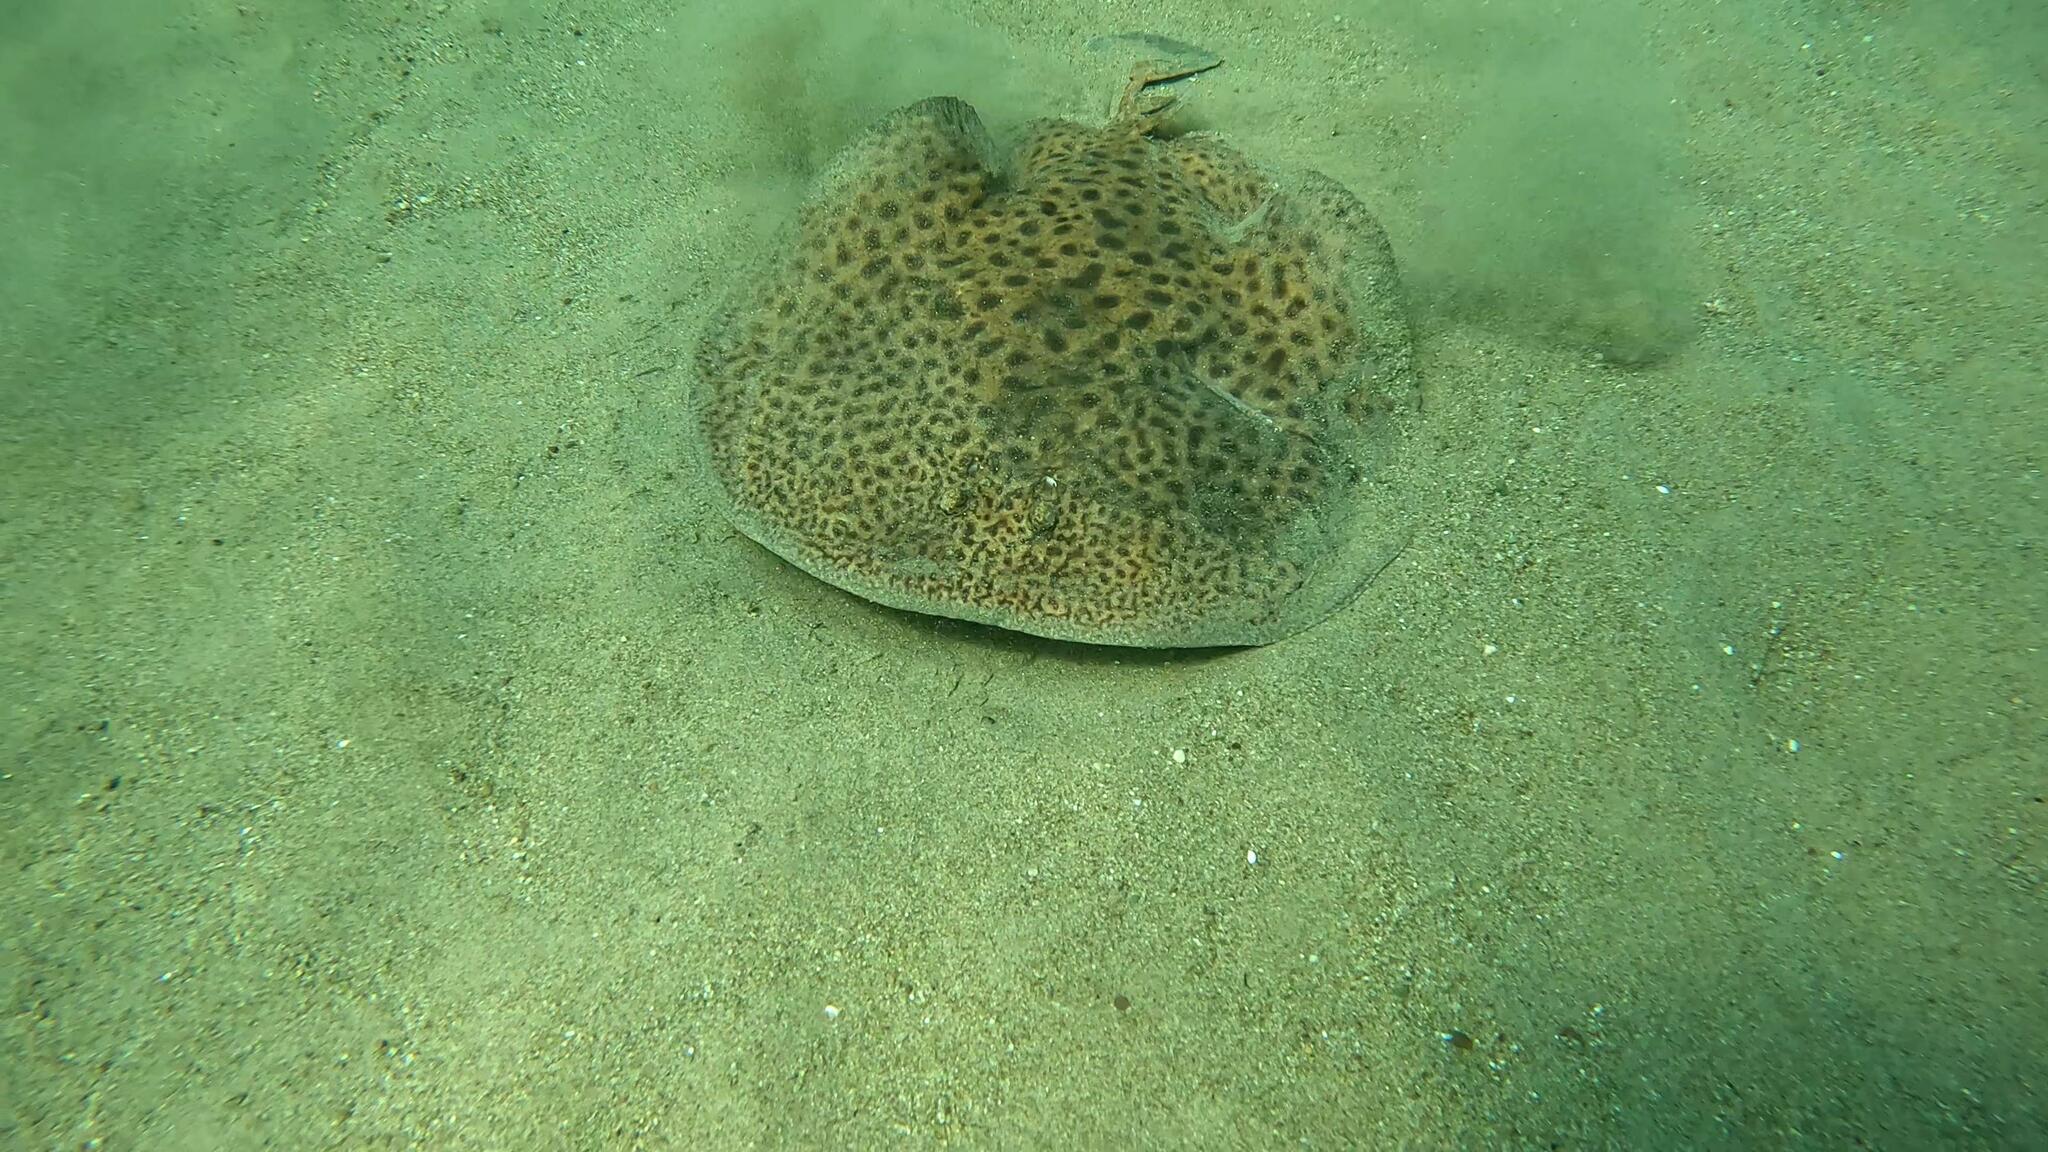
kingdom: Animalia
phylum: Chordata
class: Elasmobranchii
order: Torpediniformes
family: Torpedinidae
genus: Torpedo
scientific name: Torpedo marmorata
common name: Marbled electric ray
